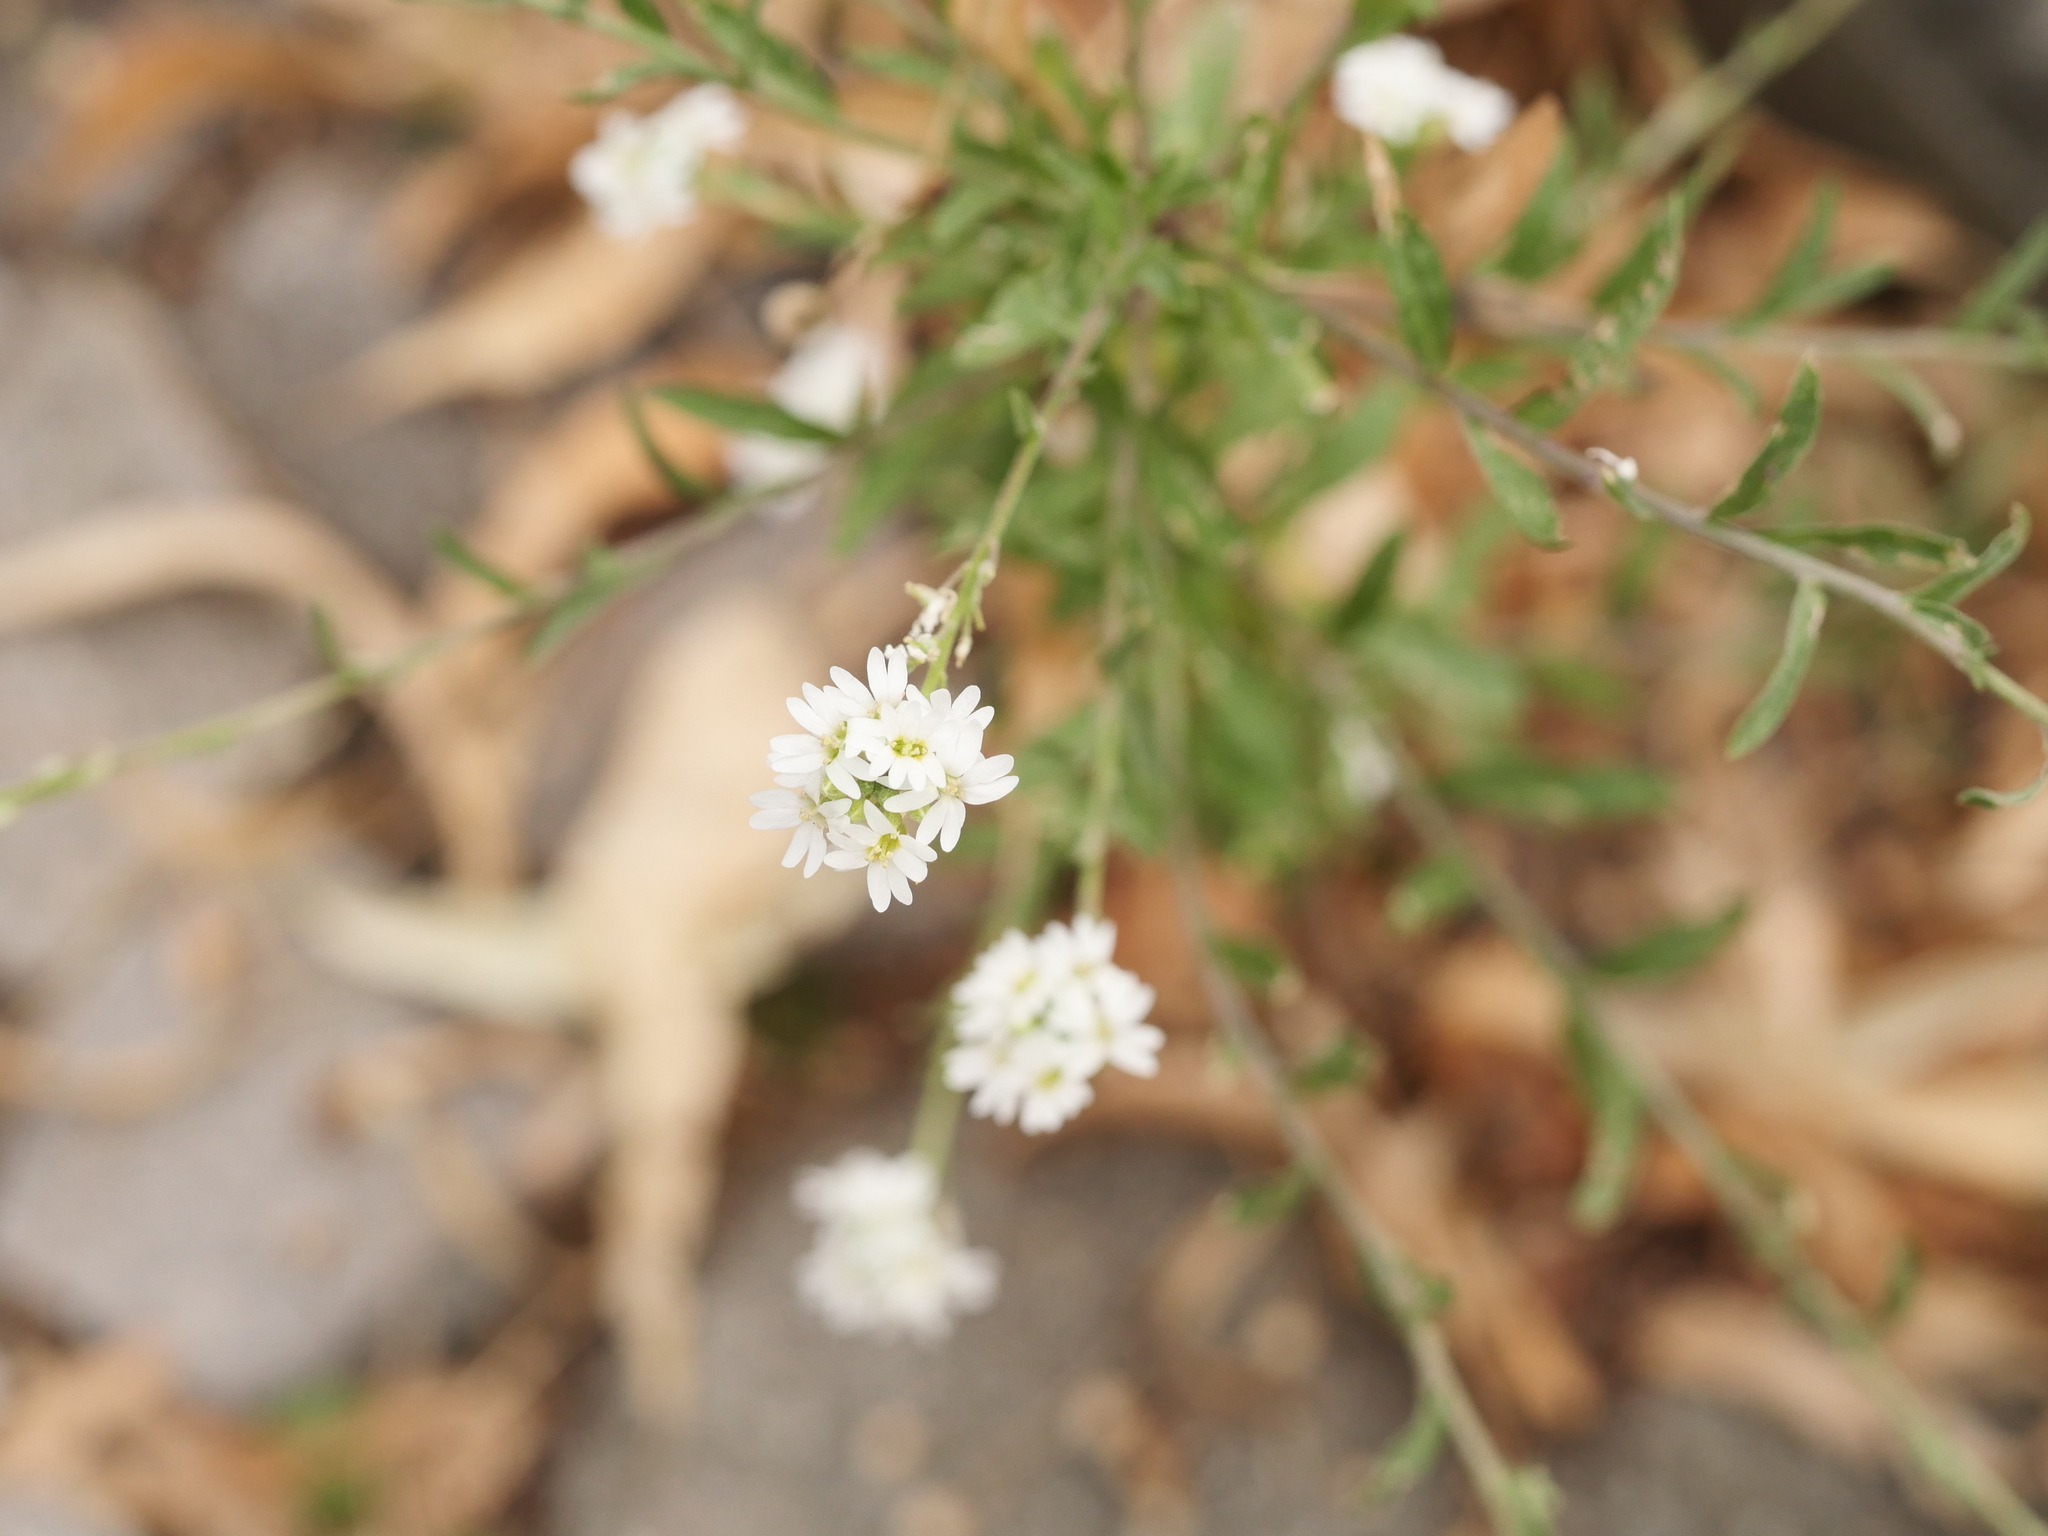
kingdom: Plantae
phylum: Tracheophyta
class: Magnoliopsida
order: Brassicales
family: Brassicaceae
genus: Berteroa
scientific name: Berteroa incana
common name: Hoary alison
